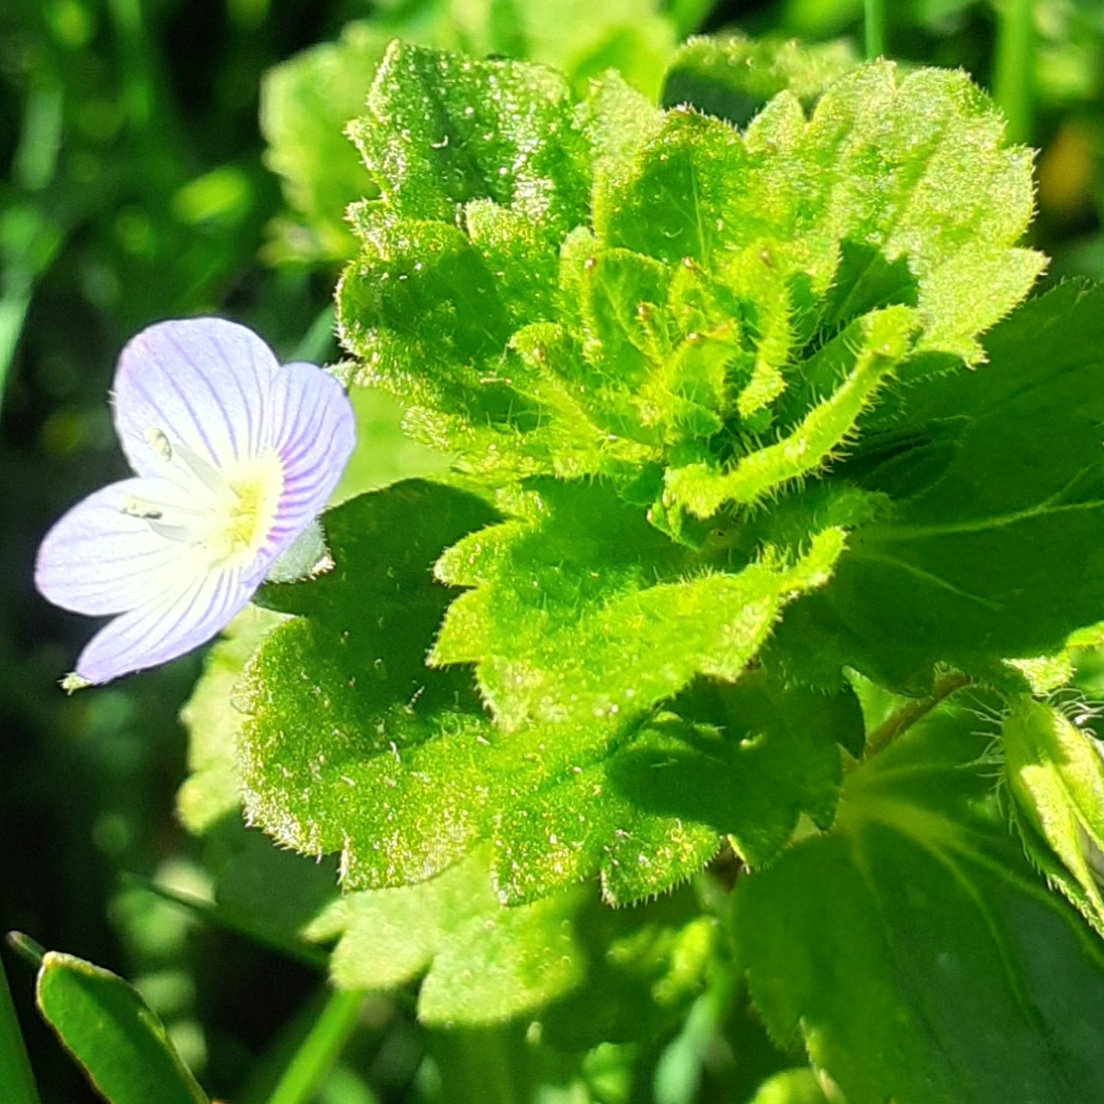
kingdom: Plantae
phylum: Tracheophyta
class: Magnoliopsida
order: Lamiales
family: Plantaginaceae
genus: Veronica
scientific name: Veronica persica
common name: Common field-speedwell
